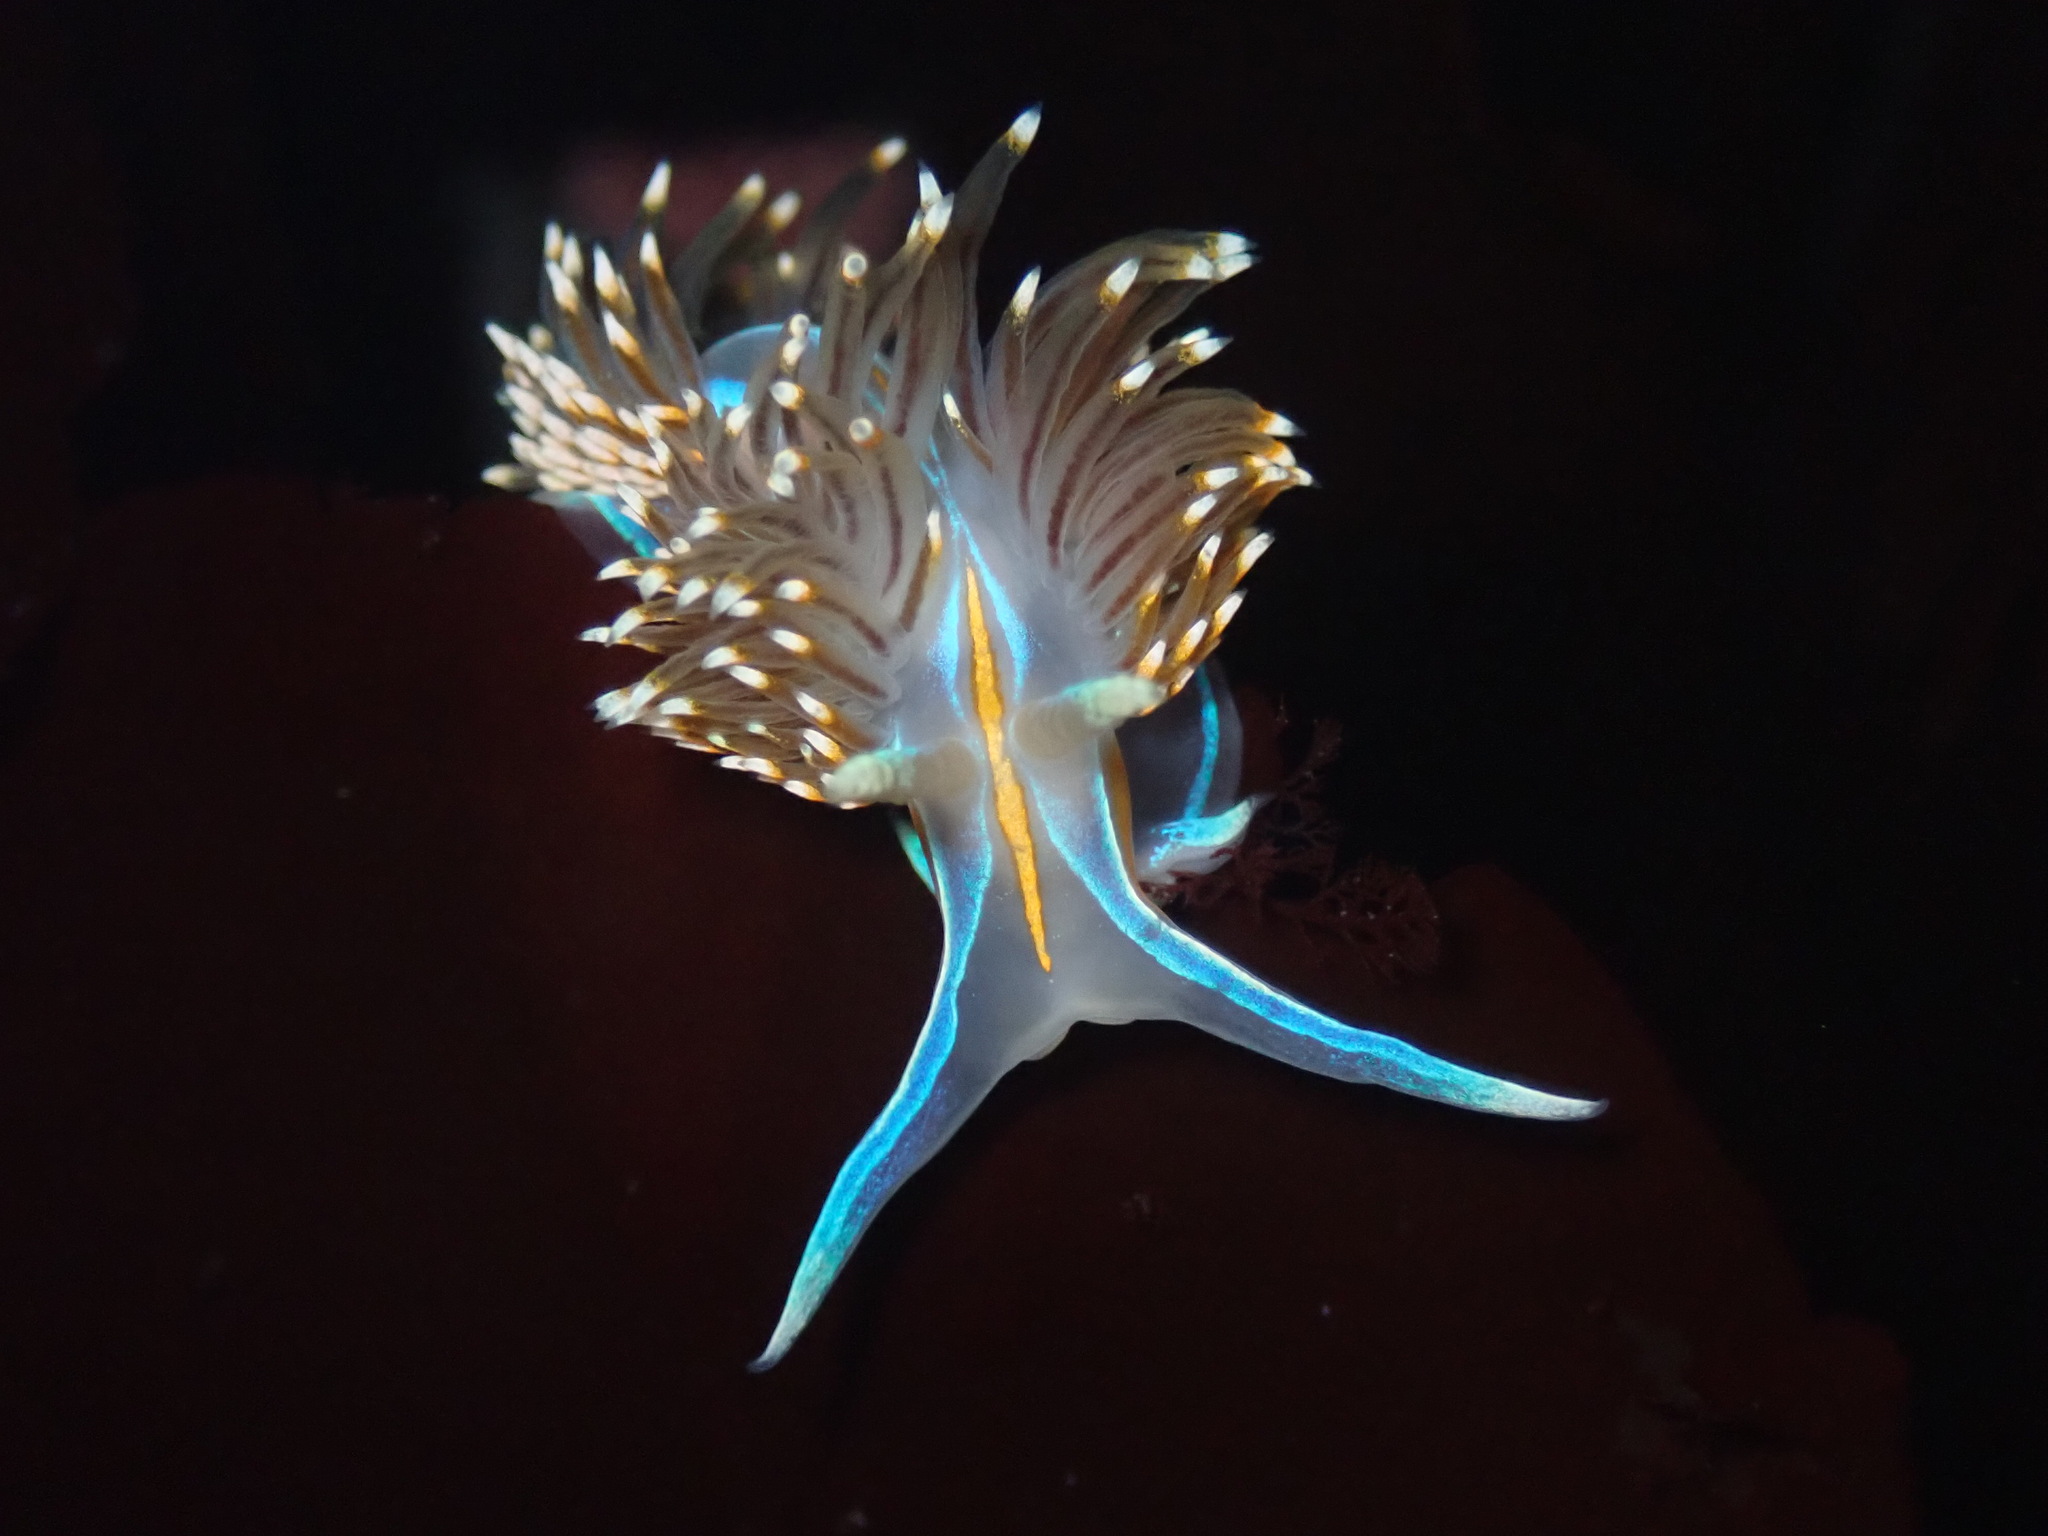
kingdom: Animalia
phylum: Mollusca
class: Gastropoda
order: Nudibranchia
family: Myrrhinidae
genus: Hermissenda
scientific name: Hermissenda opalescens
